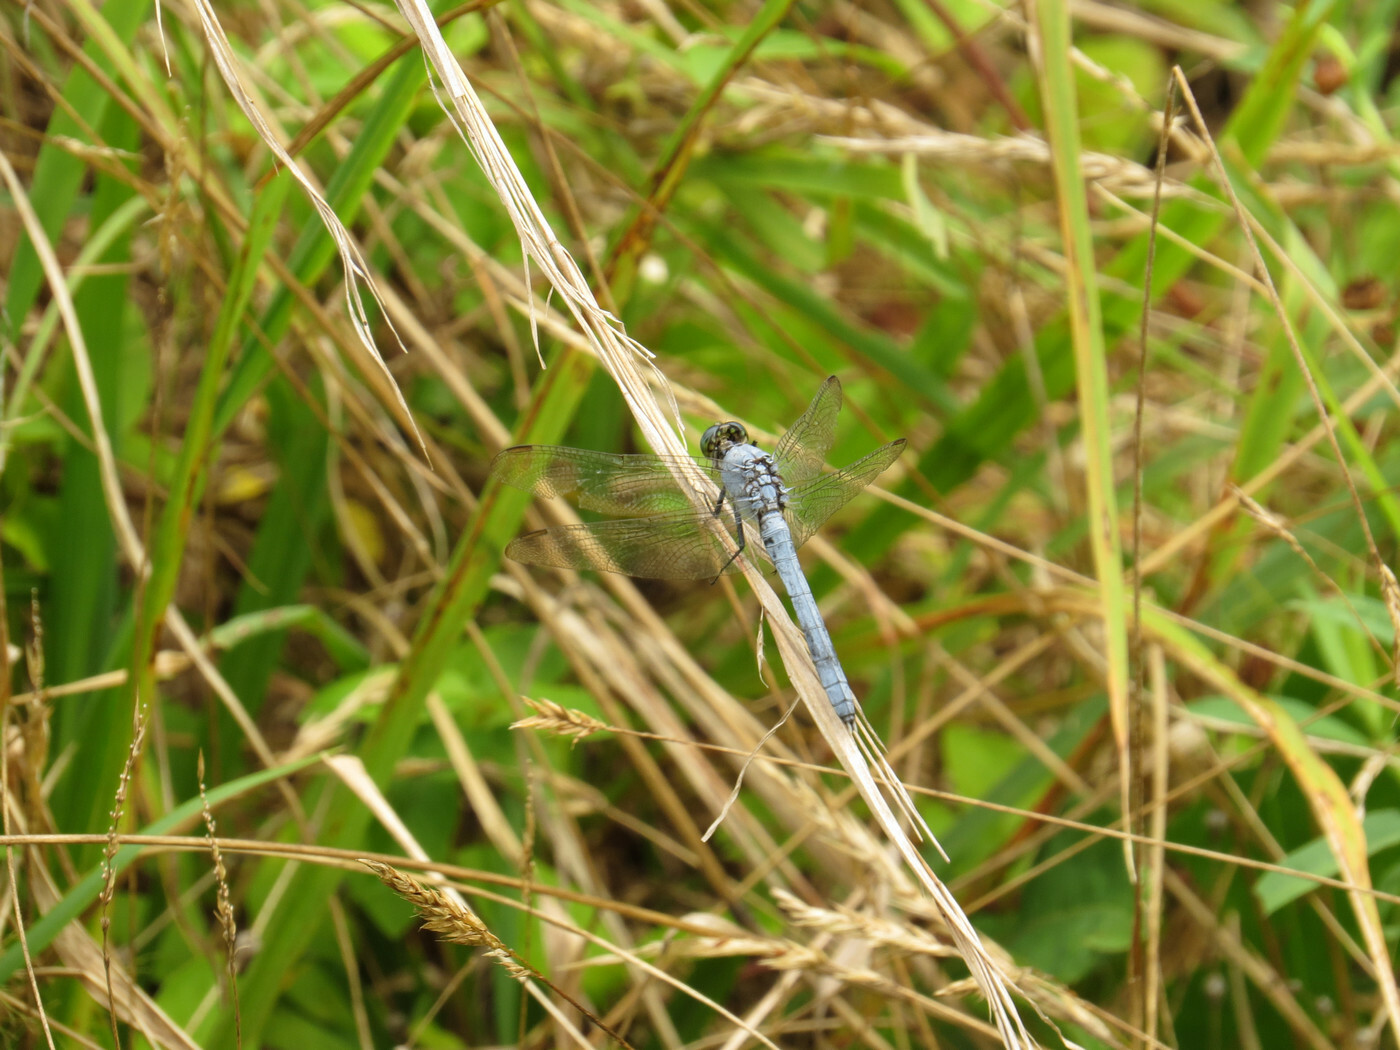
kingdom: Animalia
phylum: Arthropoda
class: Insecta
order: Odonata
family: Libellulidae
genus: Erythemis
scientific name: Erythemis simplicicollis
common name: Eastern pondhawk
